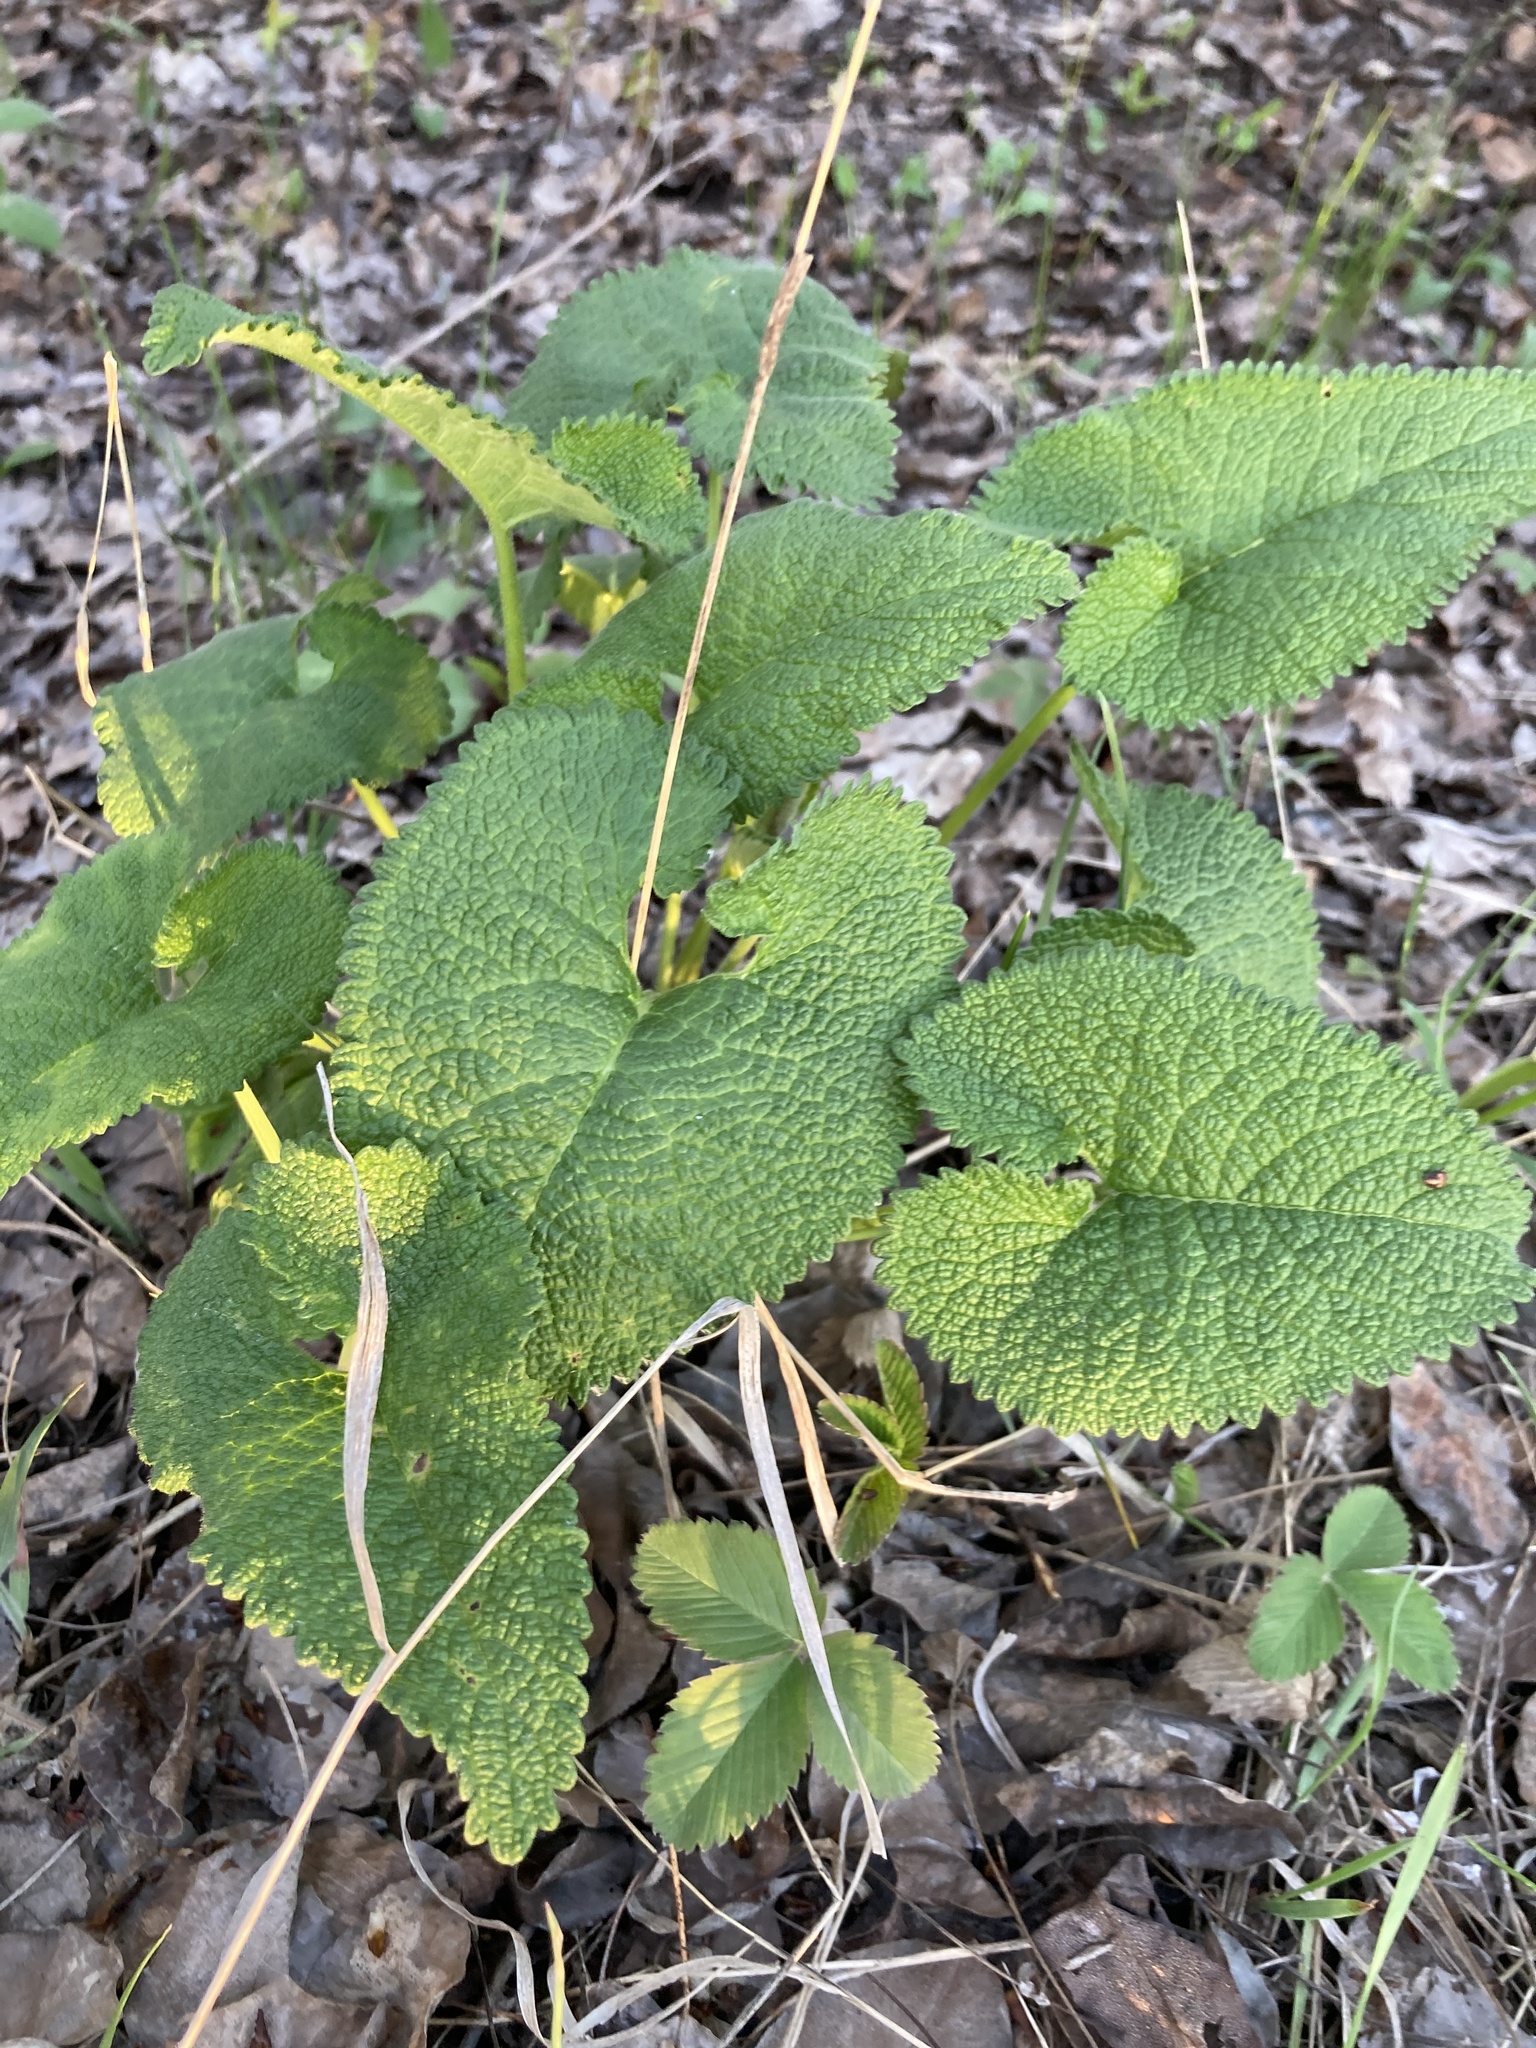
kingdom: Plantae
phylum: Tracheophyta
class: Magnoliopsida
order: Lamiales
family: Lamiaceae
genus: Phlomoides
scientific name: Phlomoides tuberosa
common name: Tuberous jerusalem sage
